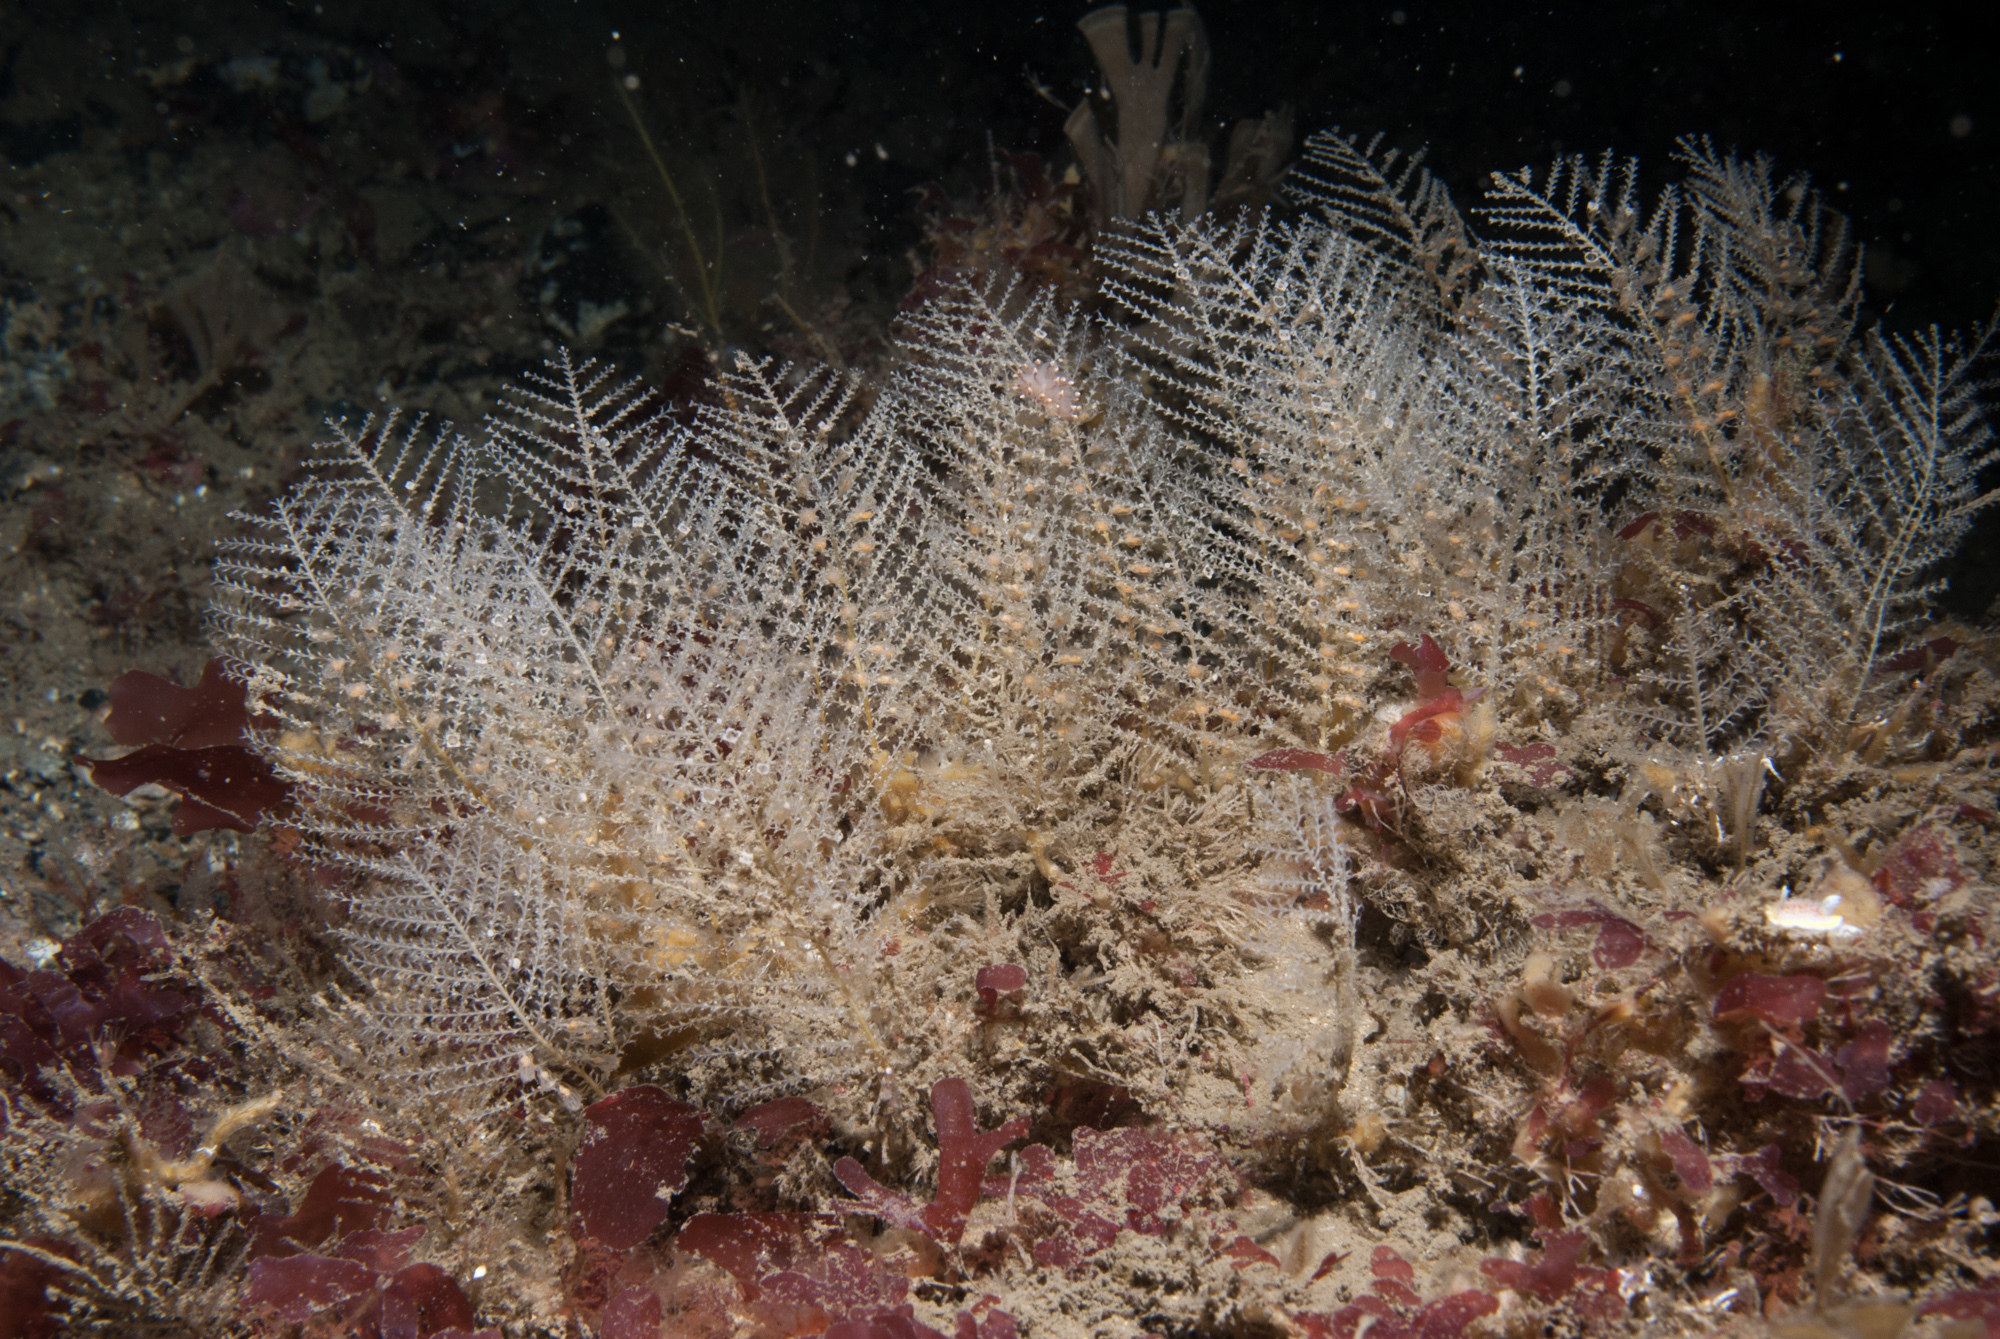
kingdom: Animalia
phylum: Cnidaria
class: Hydrozoa
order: Leptothecata
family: Sertulariidae
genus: Diphasia
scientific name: Diphasia margareta
